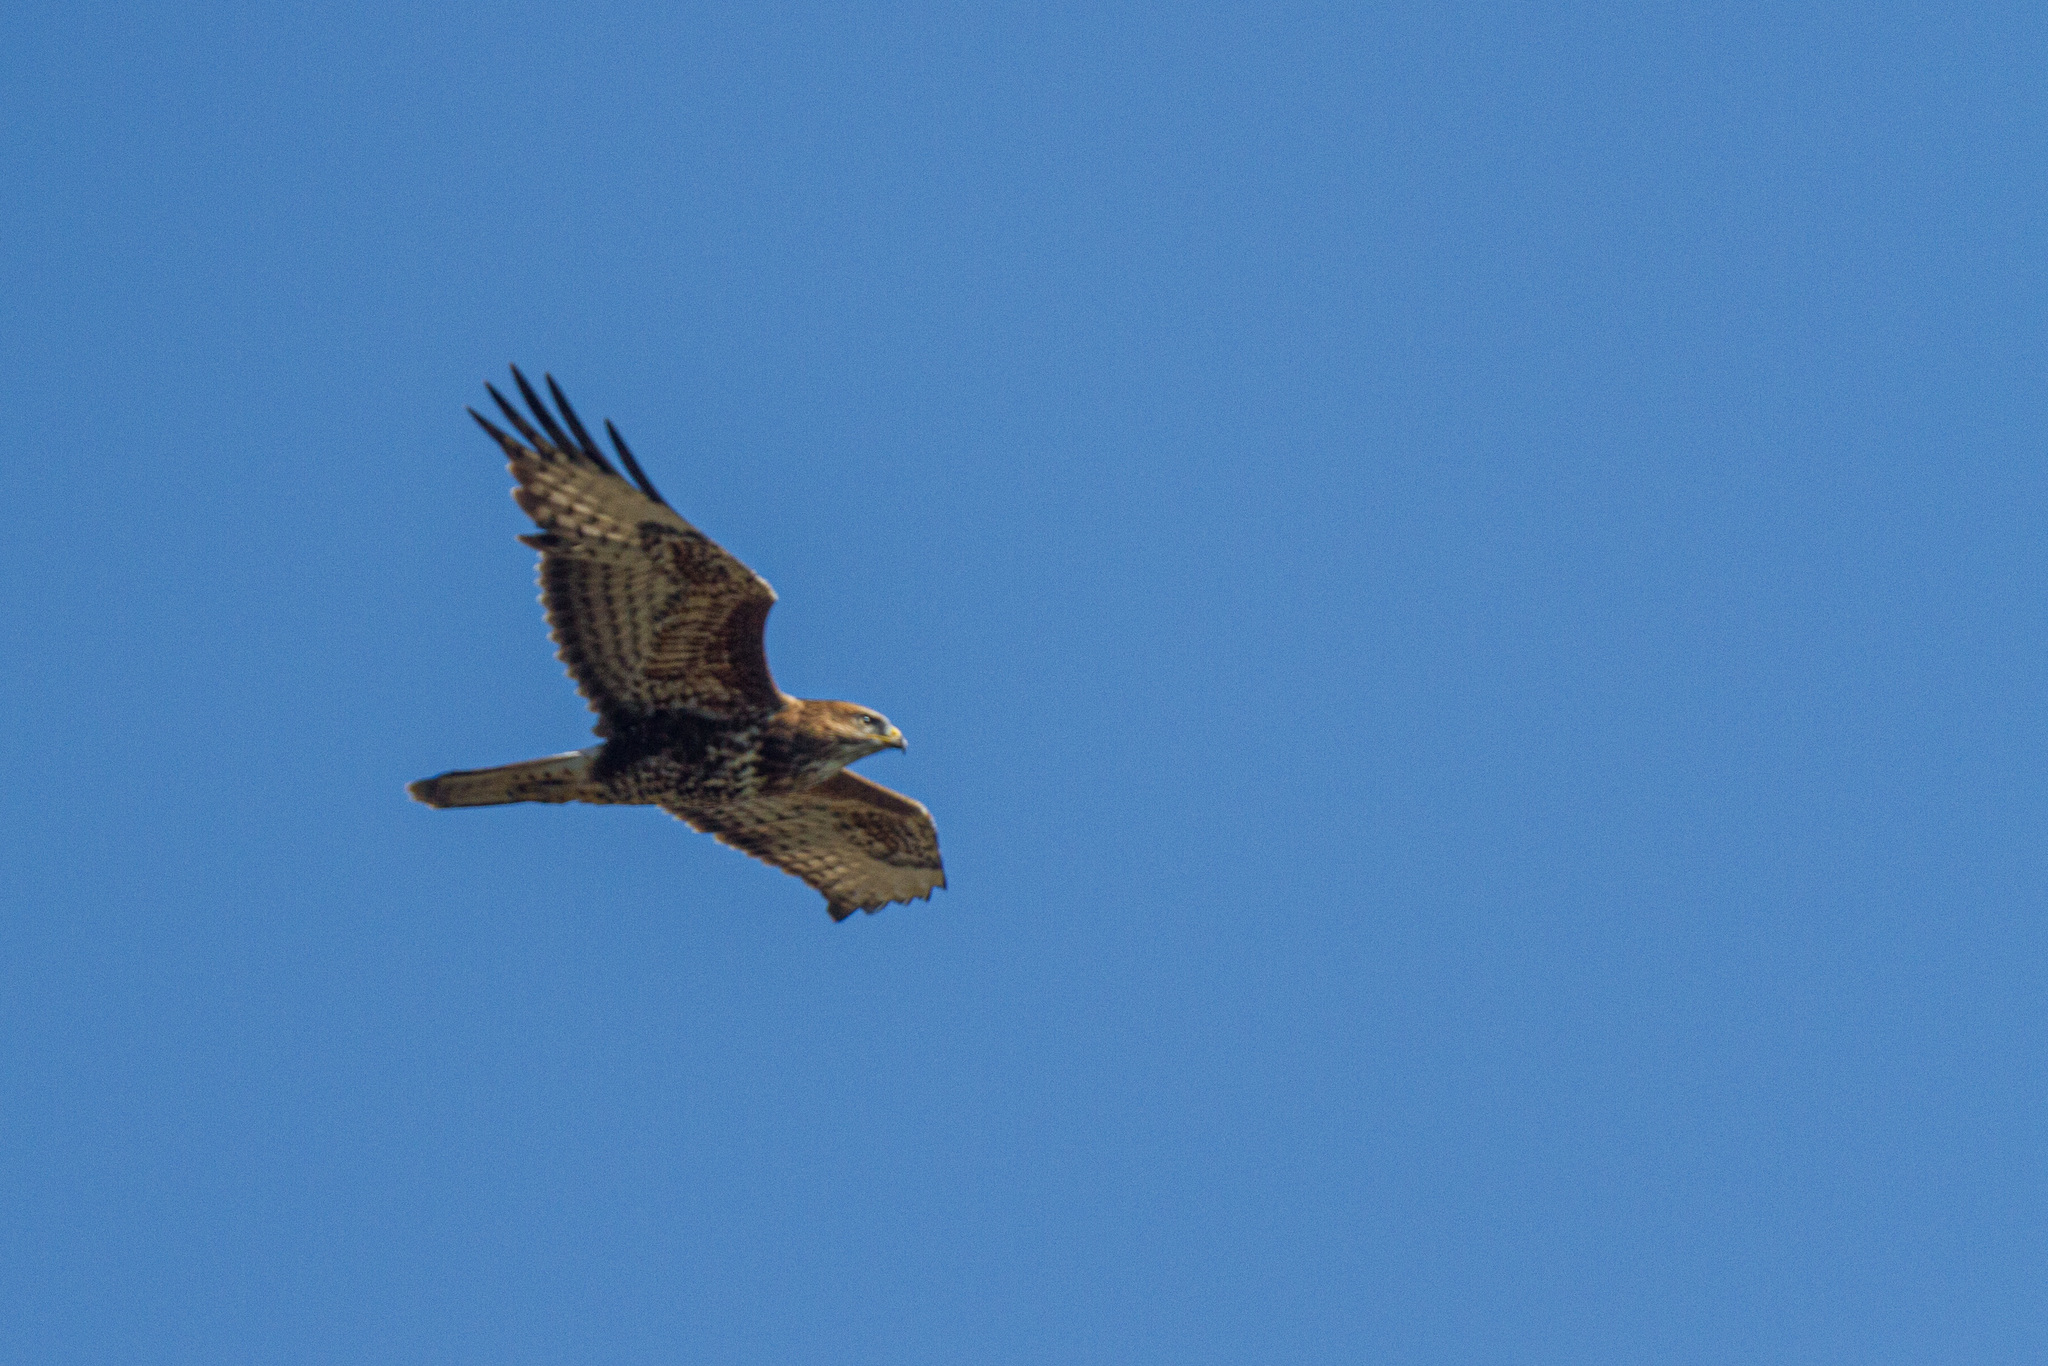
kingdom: Animalia
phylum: Chordata
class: Aves
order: Accipitriformes
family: Accipitridae
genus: Buteo
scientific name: Buteo buteo
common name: Common buzzard
